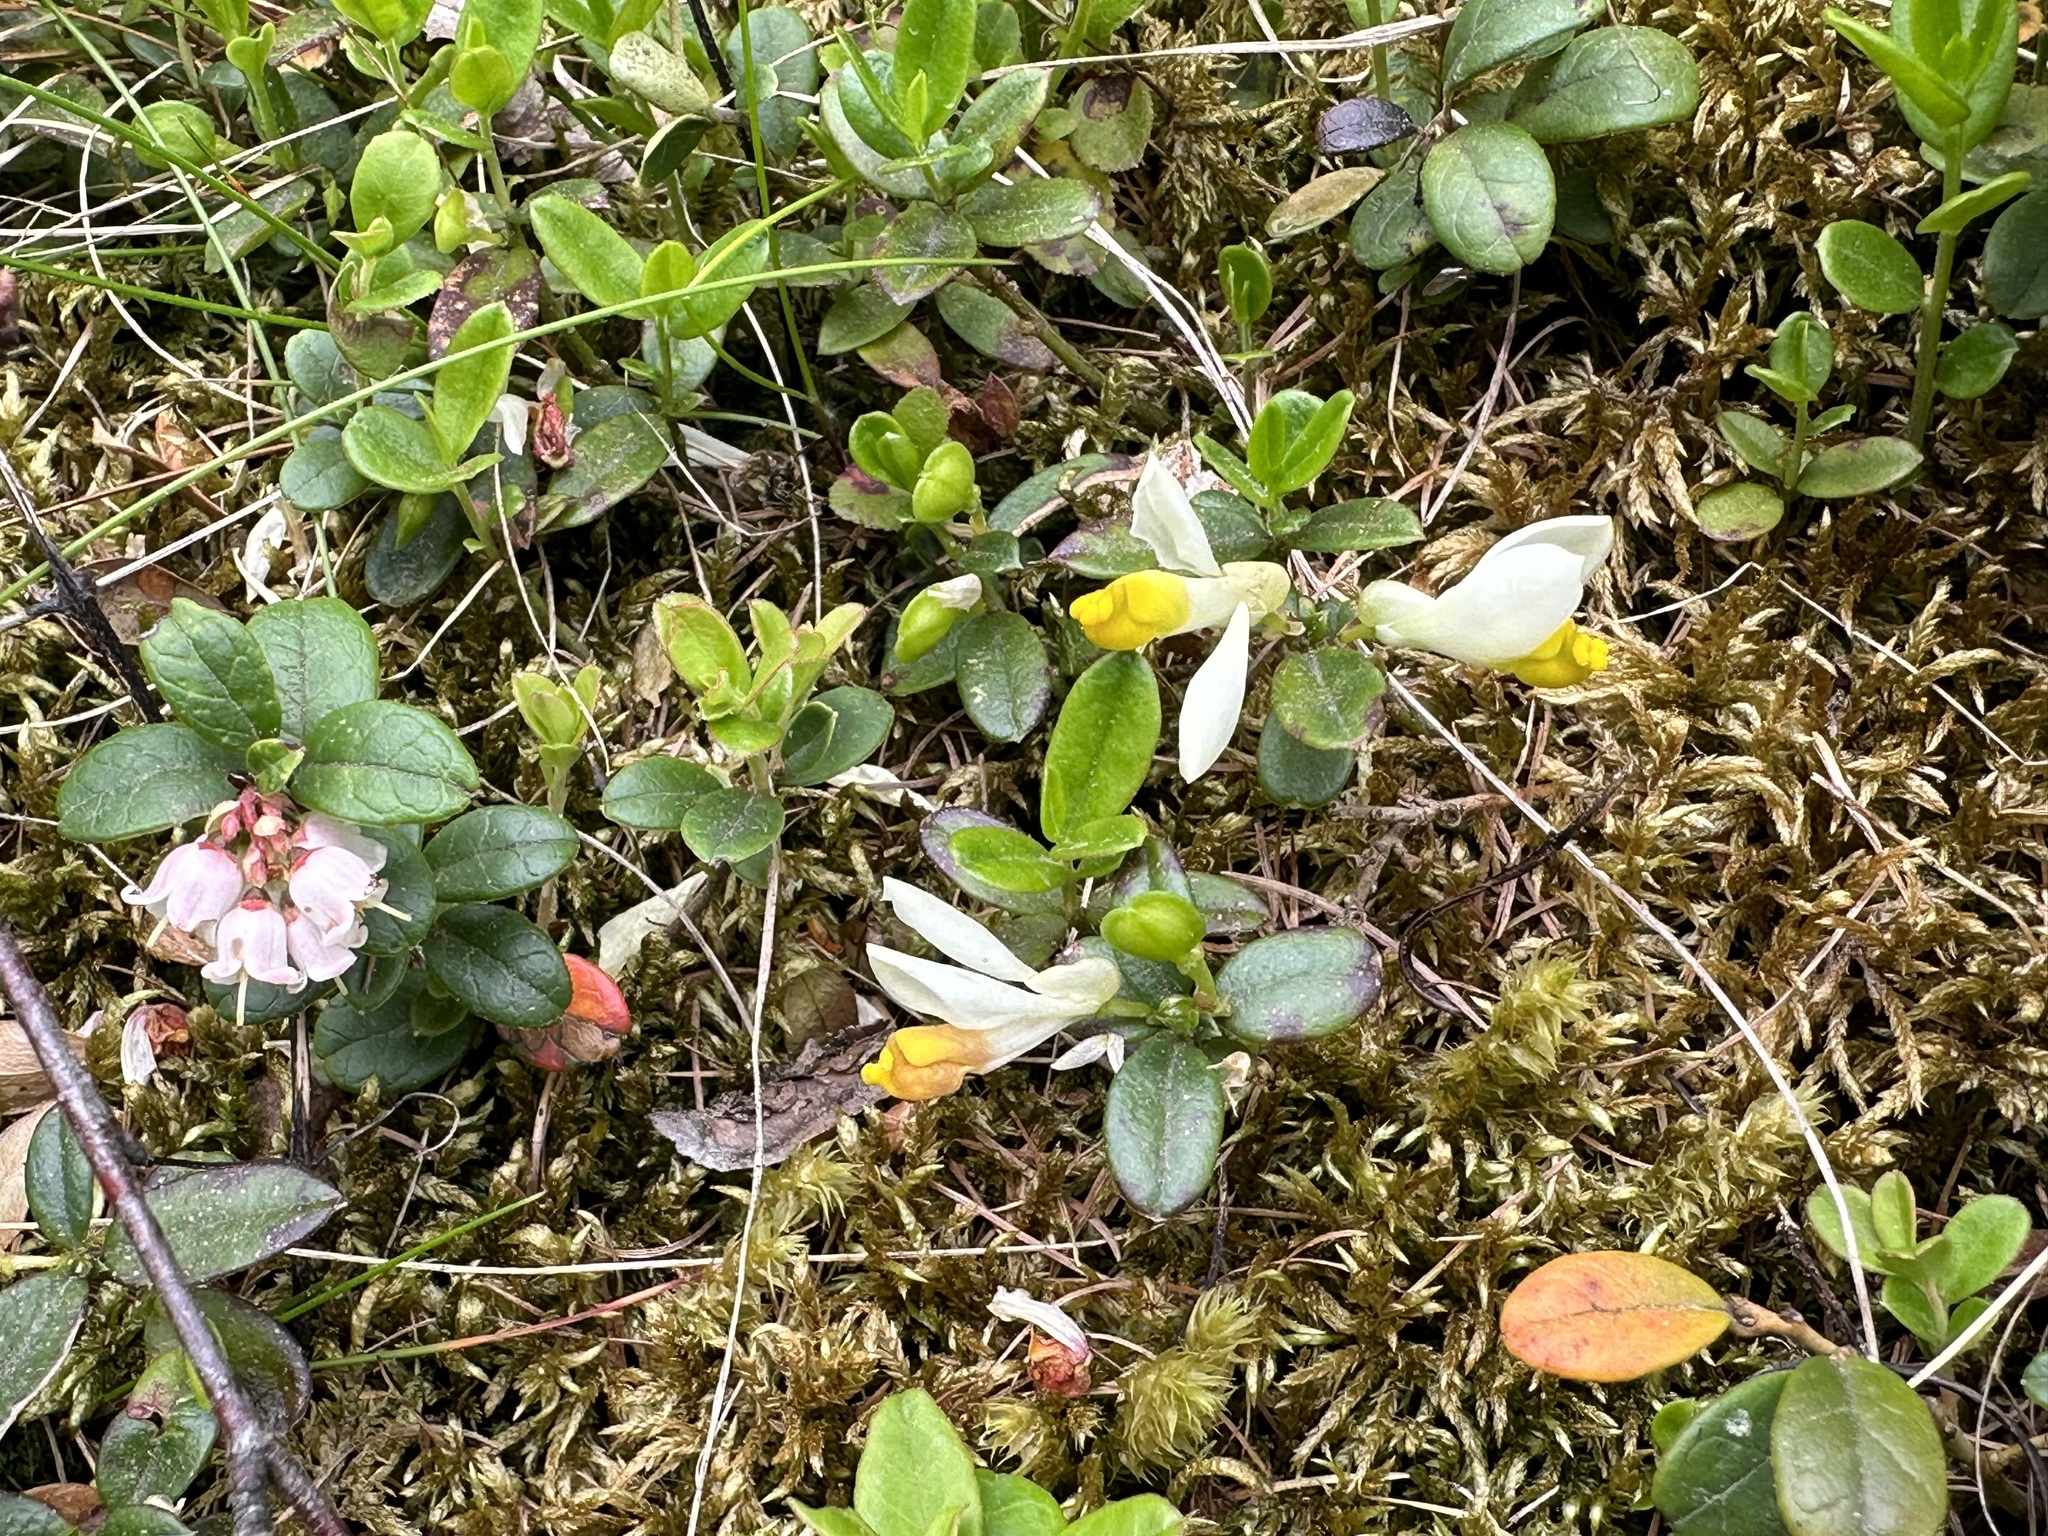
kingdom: Plantae
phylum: Tracheophyta
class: Magnoliopsida
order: Fabales
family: Polygalaceae
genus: Polygaloides
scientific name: Polygaloides chamaebuxus
